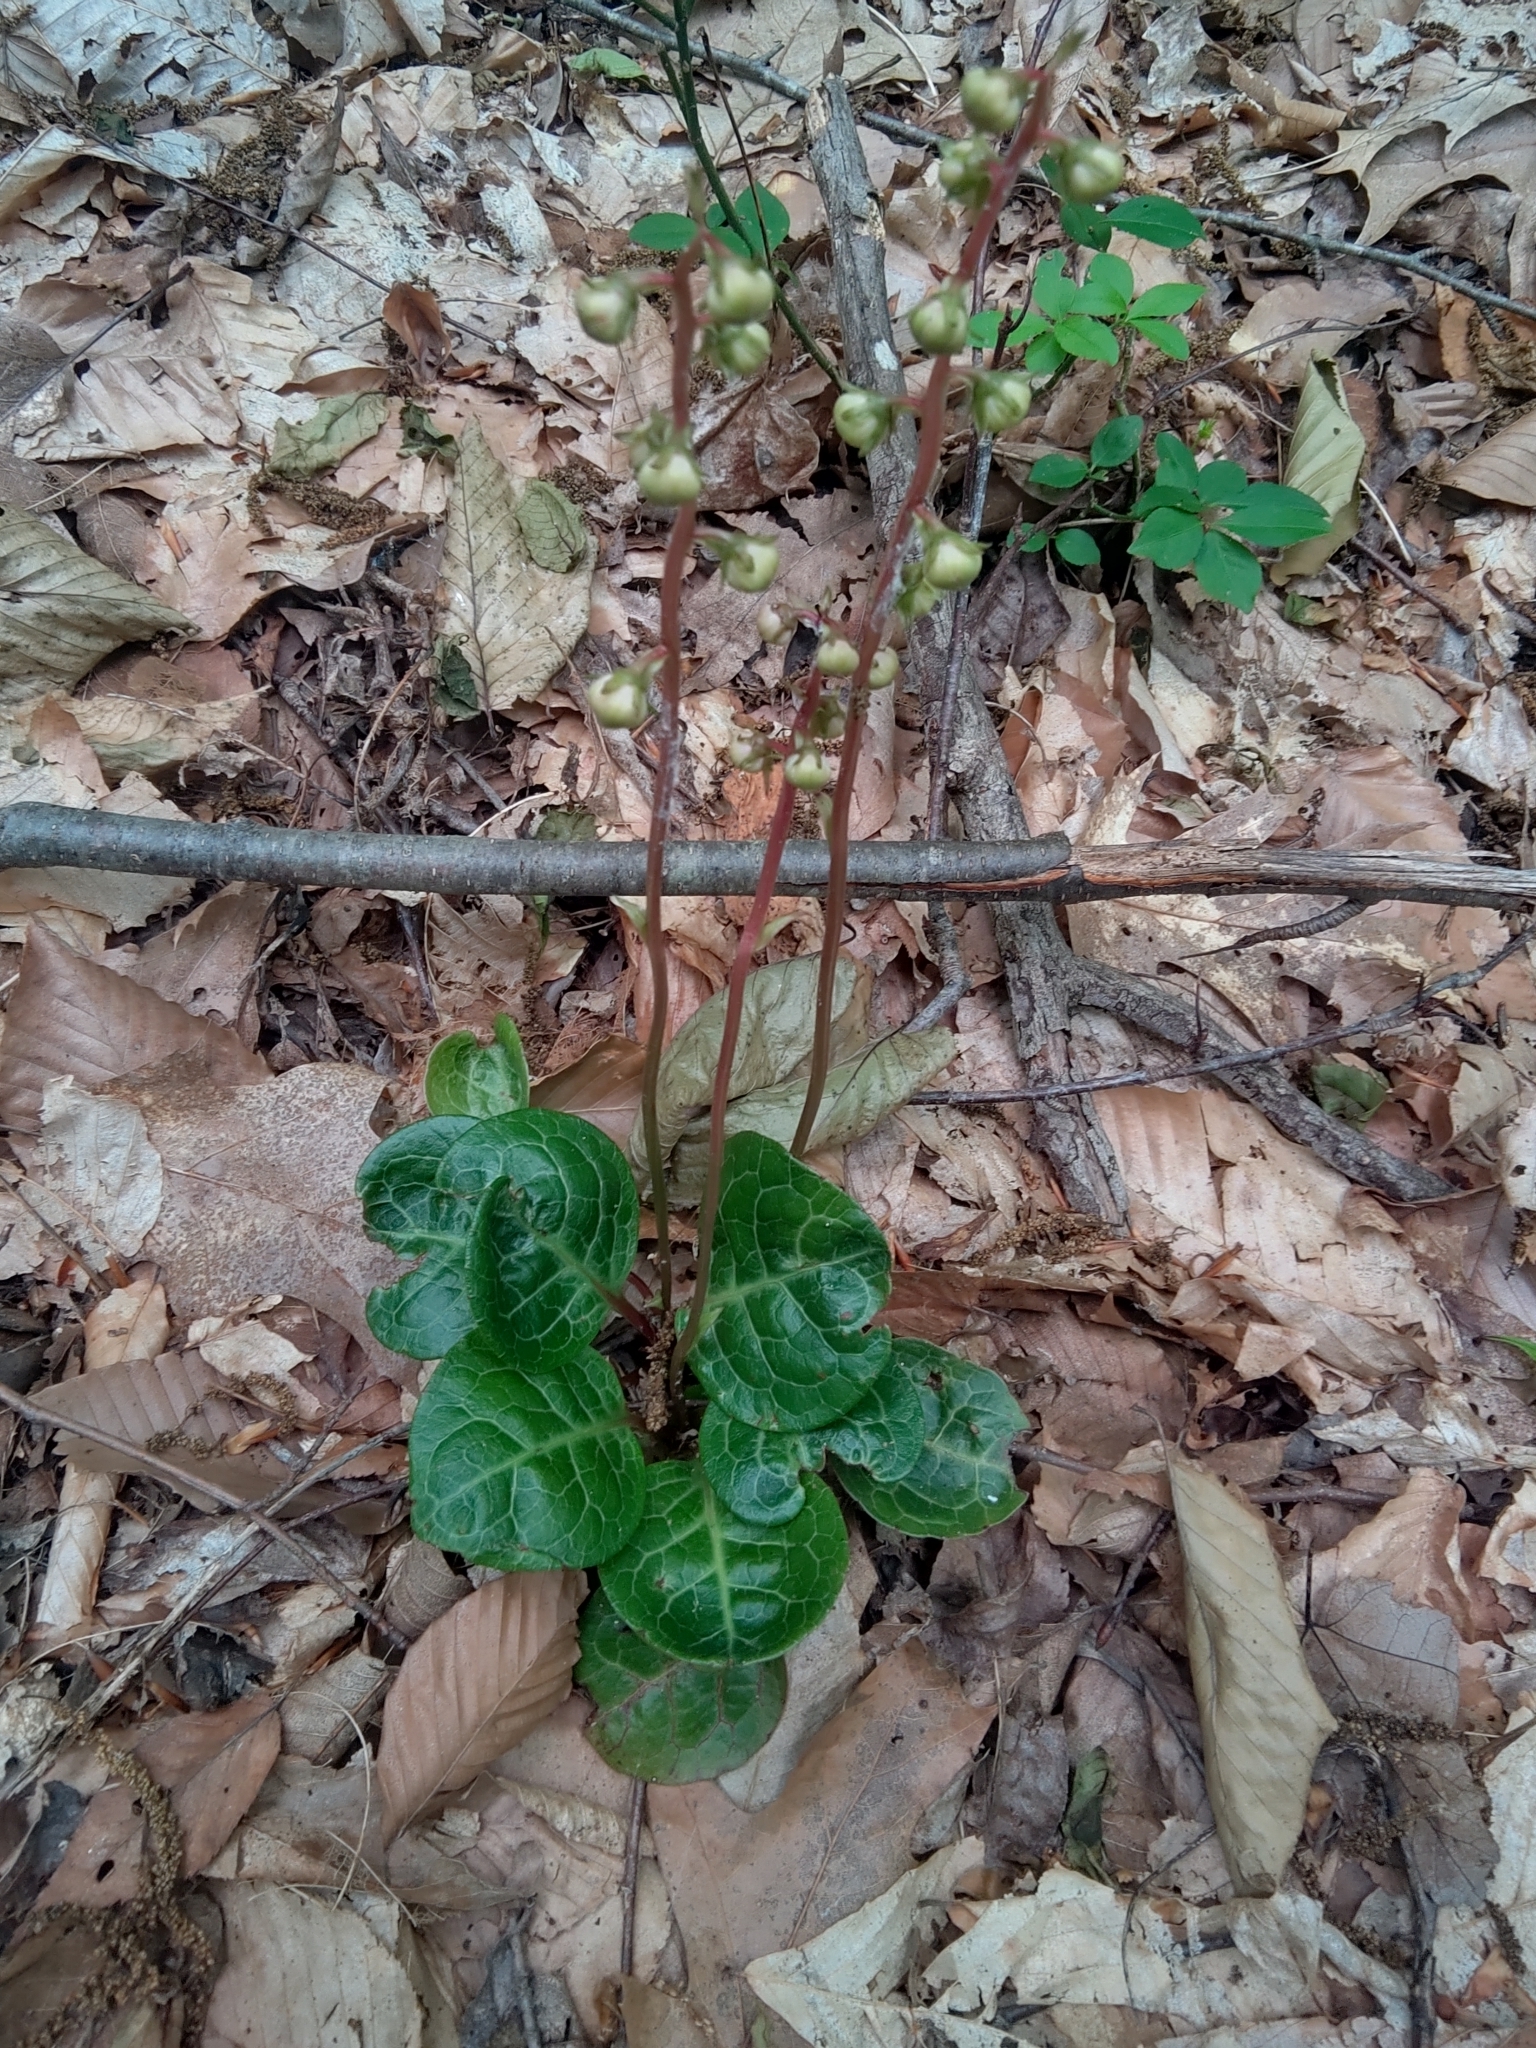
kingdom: Plantae
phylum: Tracheophyta
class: Magnoliopsida
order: Ericales
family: Ericaceae
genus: Pyrola
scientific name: Pyrola americana
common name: American wintergreen
